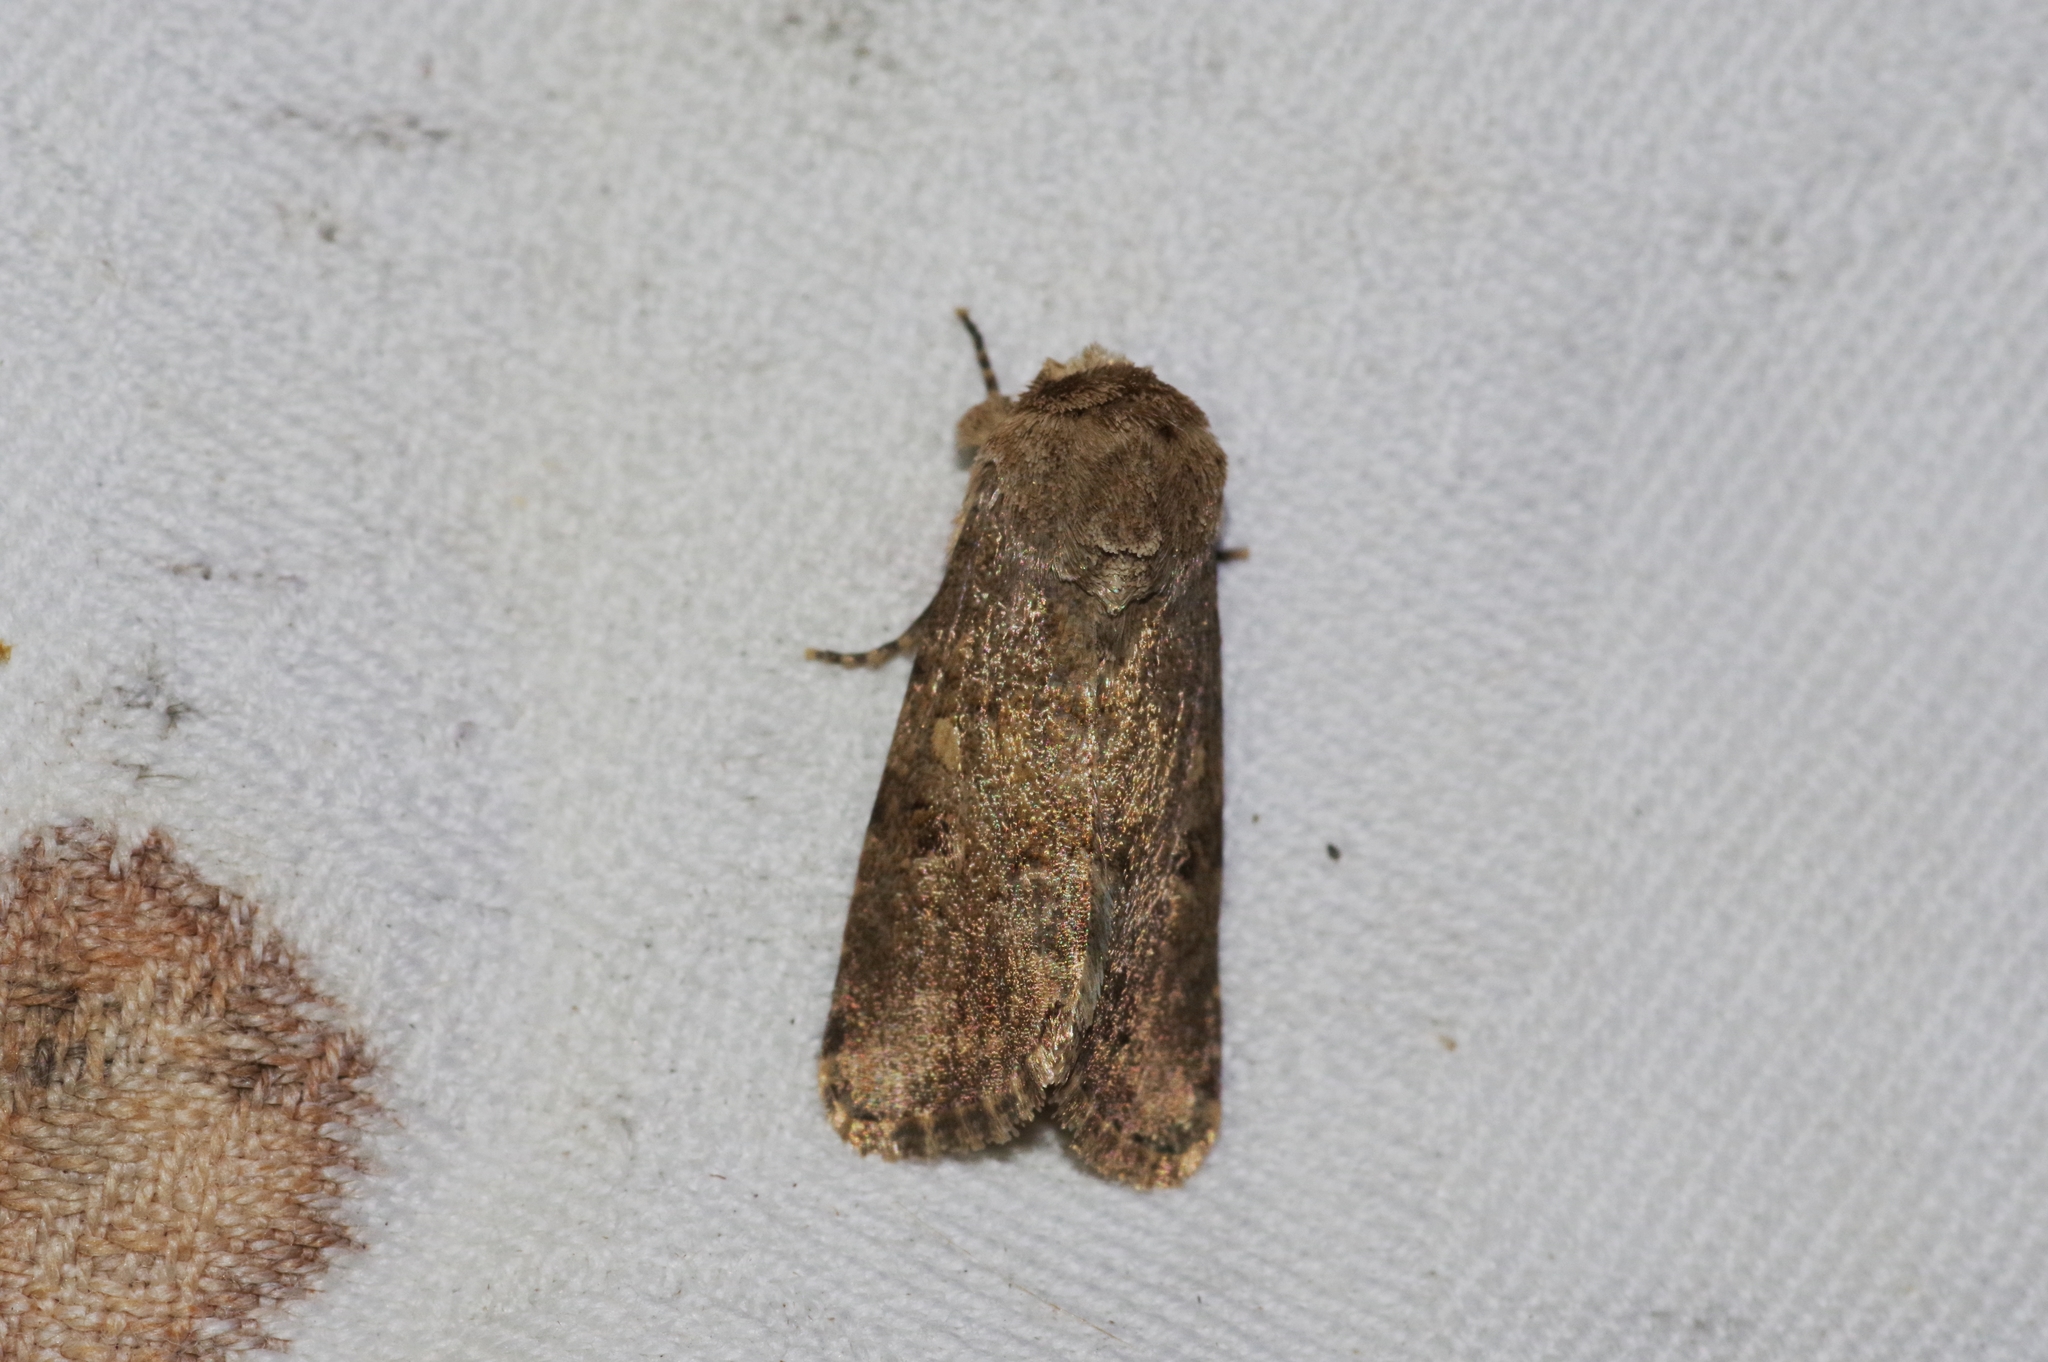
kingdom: Animalia
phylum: Arthropoda
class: Insecta
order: Lepidoptera
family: Noctuidae
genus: Spodoptera
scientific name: Spodoptera mauritia
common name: Lawn armyworm
